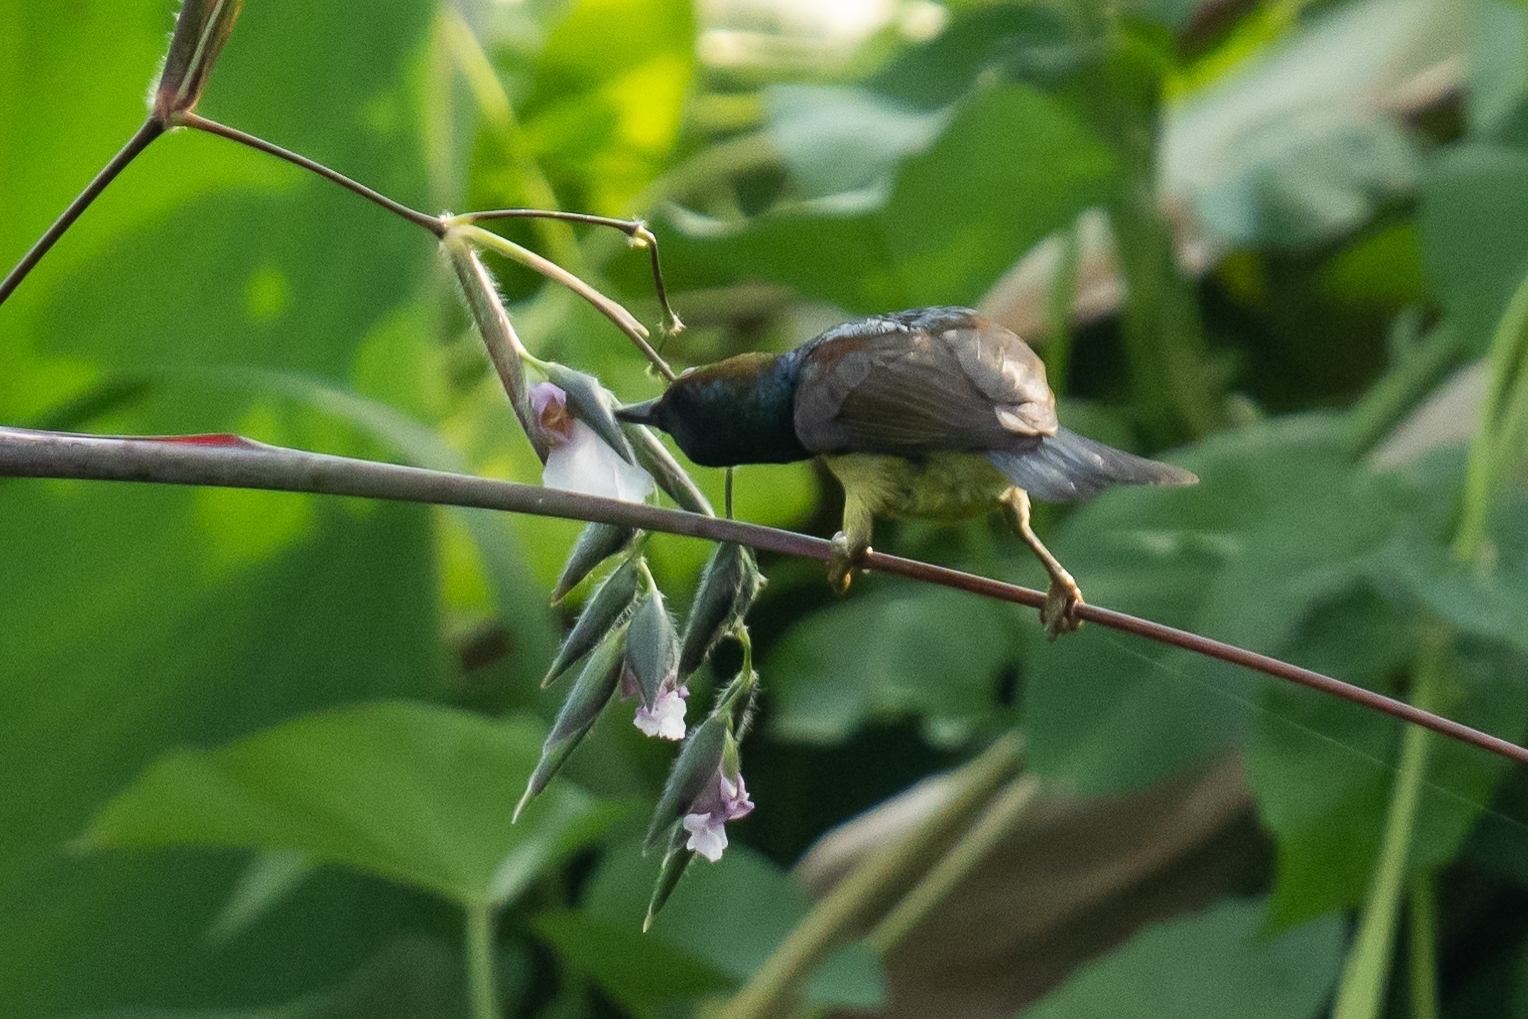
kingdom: Animalia
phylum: Chordata
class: Aves
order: Passeriformes
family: Nectariniidae
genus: Anthreptes
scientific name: Anthreptes malacensis
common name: Brown-throated sunbird
